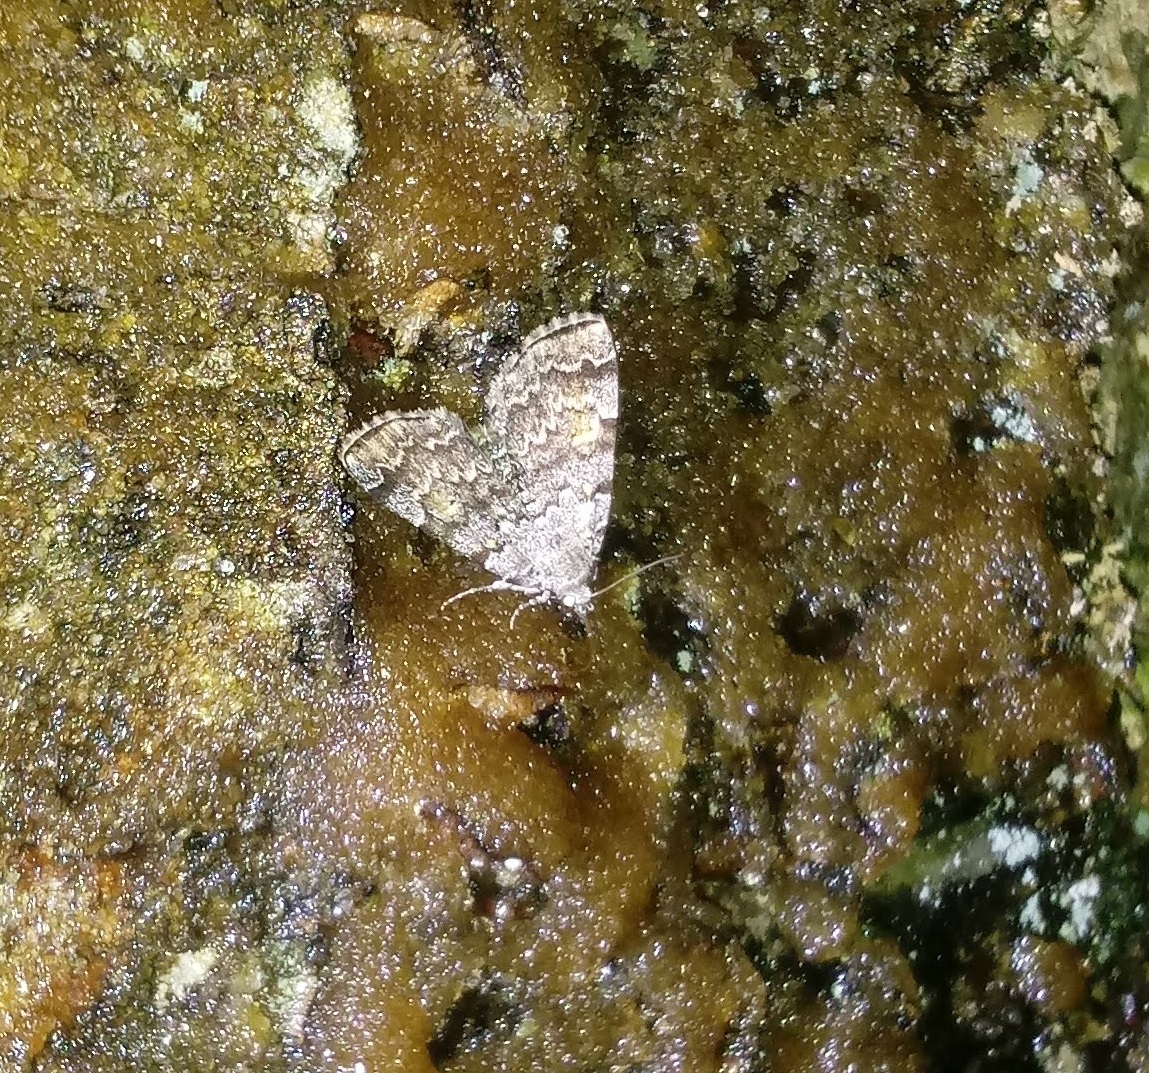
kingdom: Animalia
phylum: Arthropoda
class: Insecta
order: Lepidoptera
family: Erebidae
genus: Idia
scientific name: Idia americalis
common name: American idia moth
